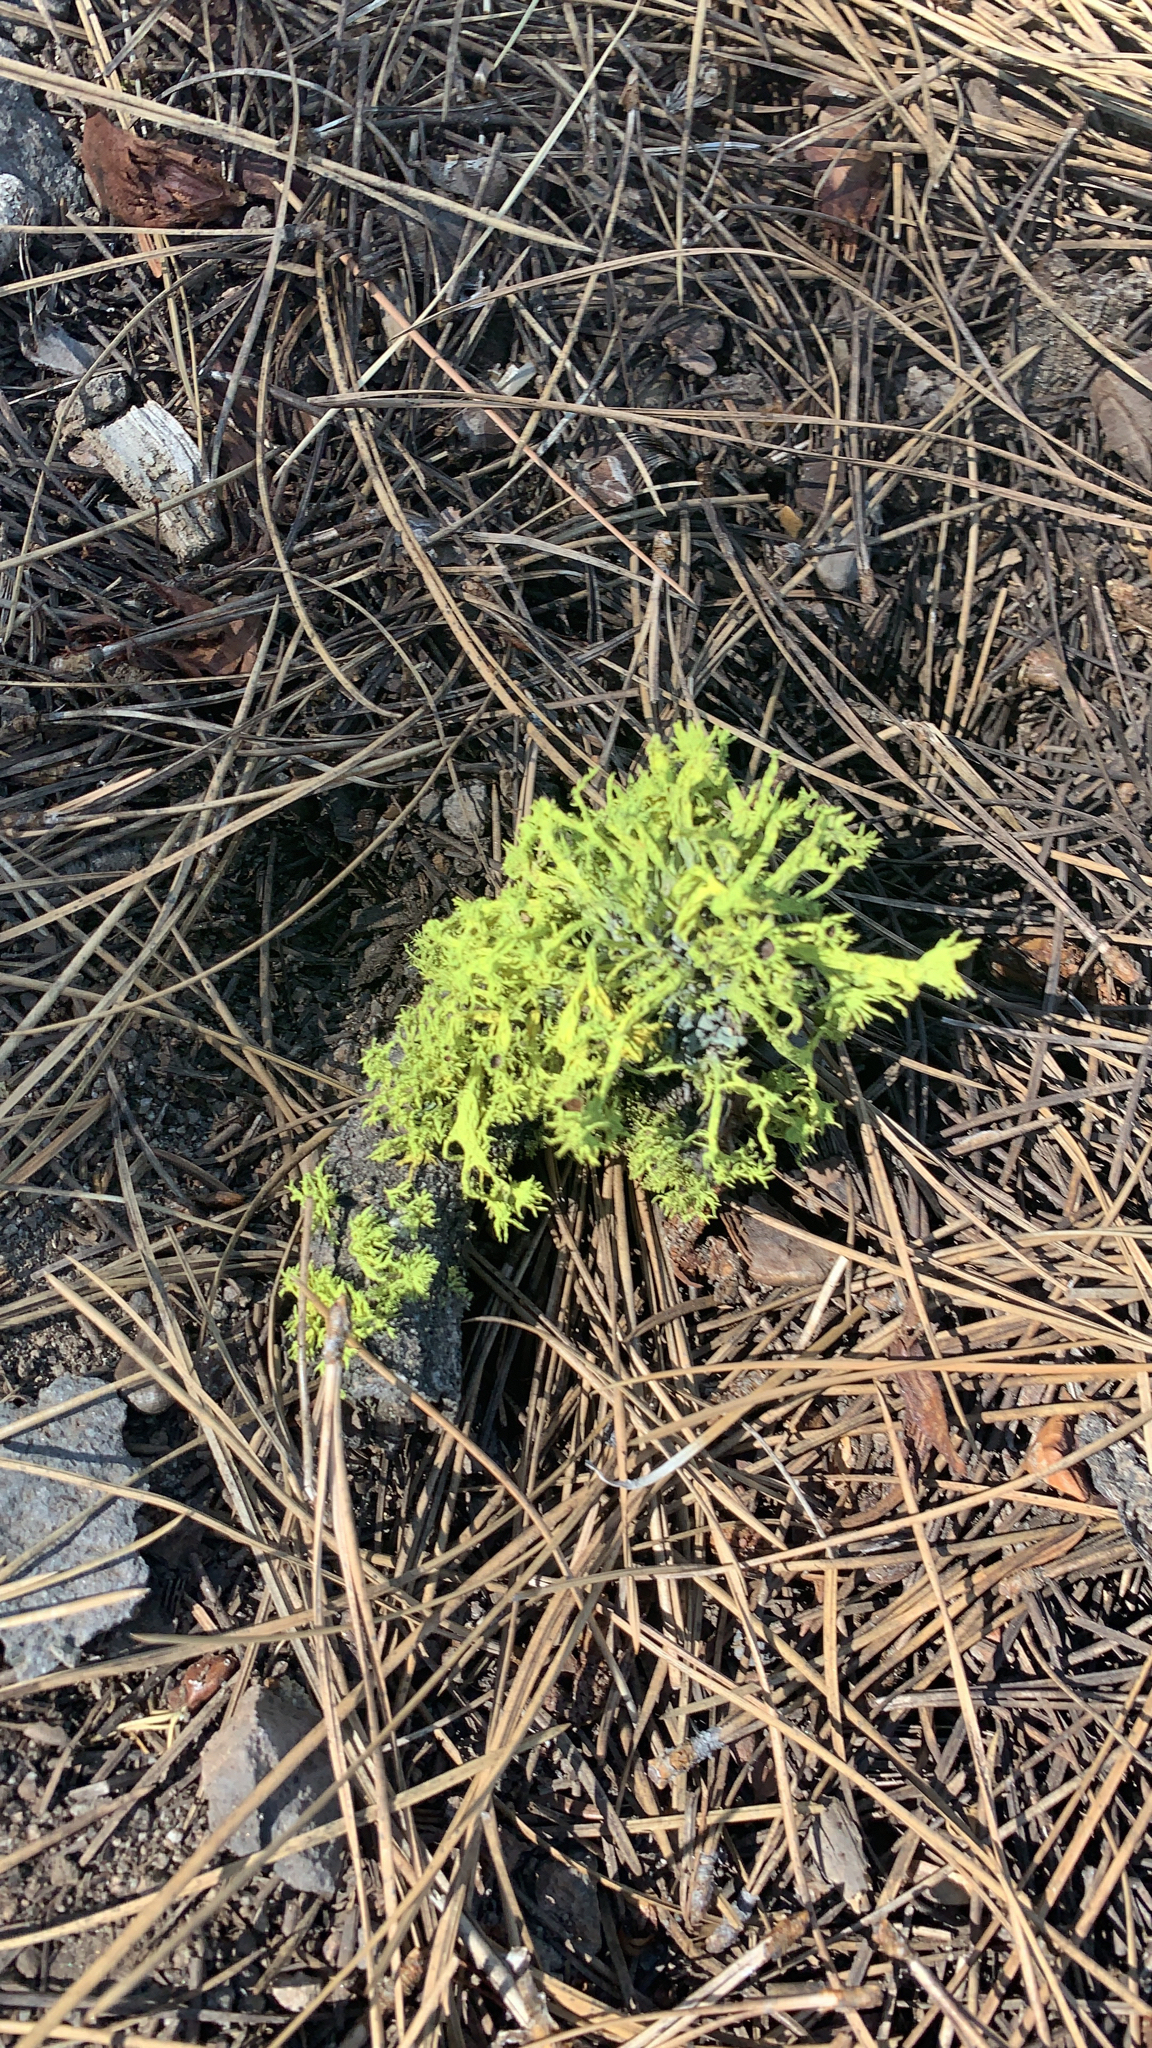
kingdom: Fungi
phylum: Ascomycota
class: Lecanoromycetes
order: Lecanorales
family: Parmeliaceae
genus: Letharia
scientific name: Letharia columbiana
